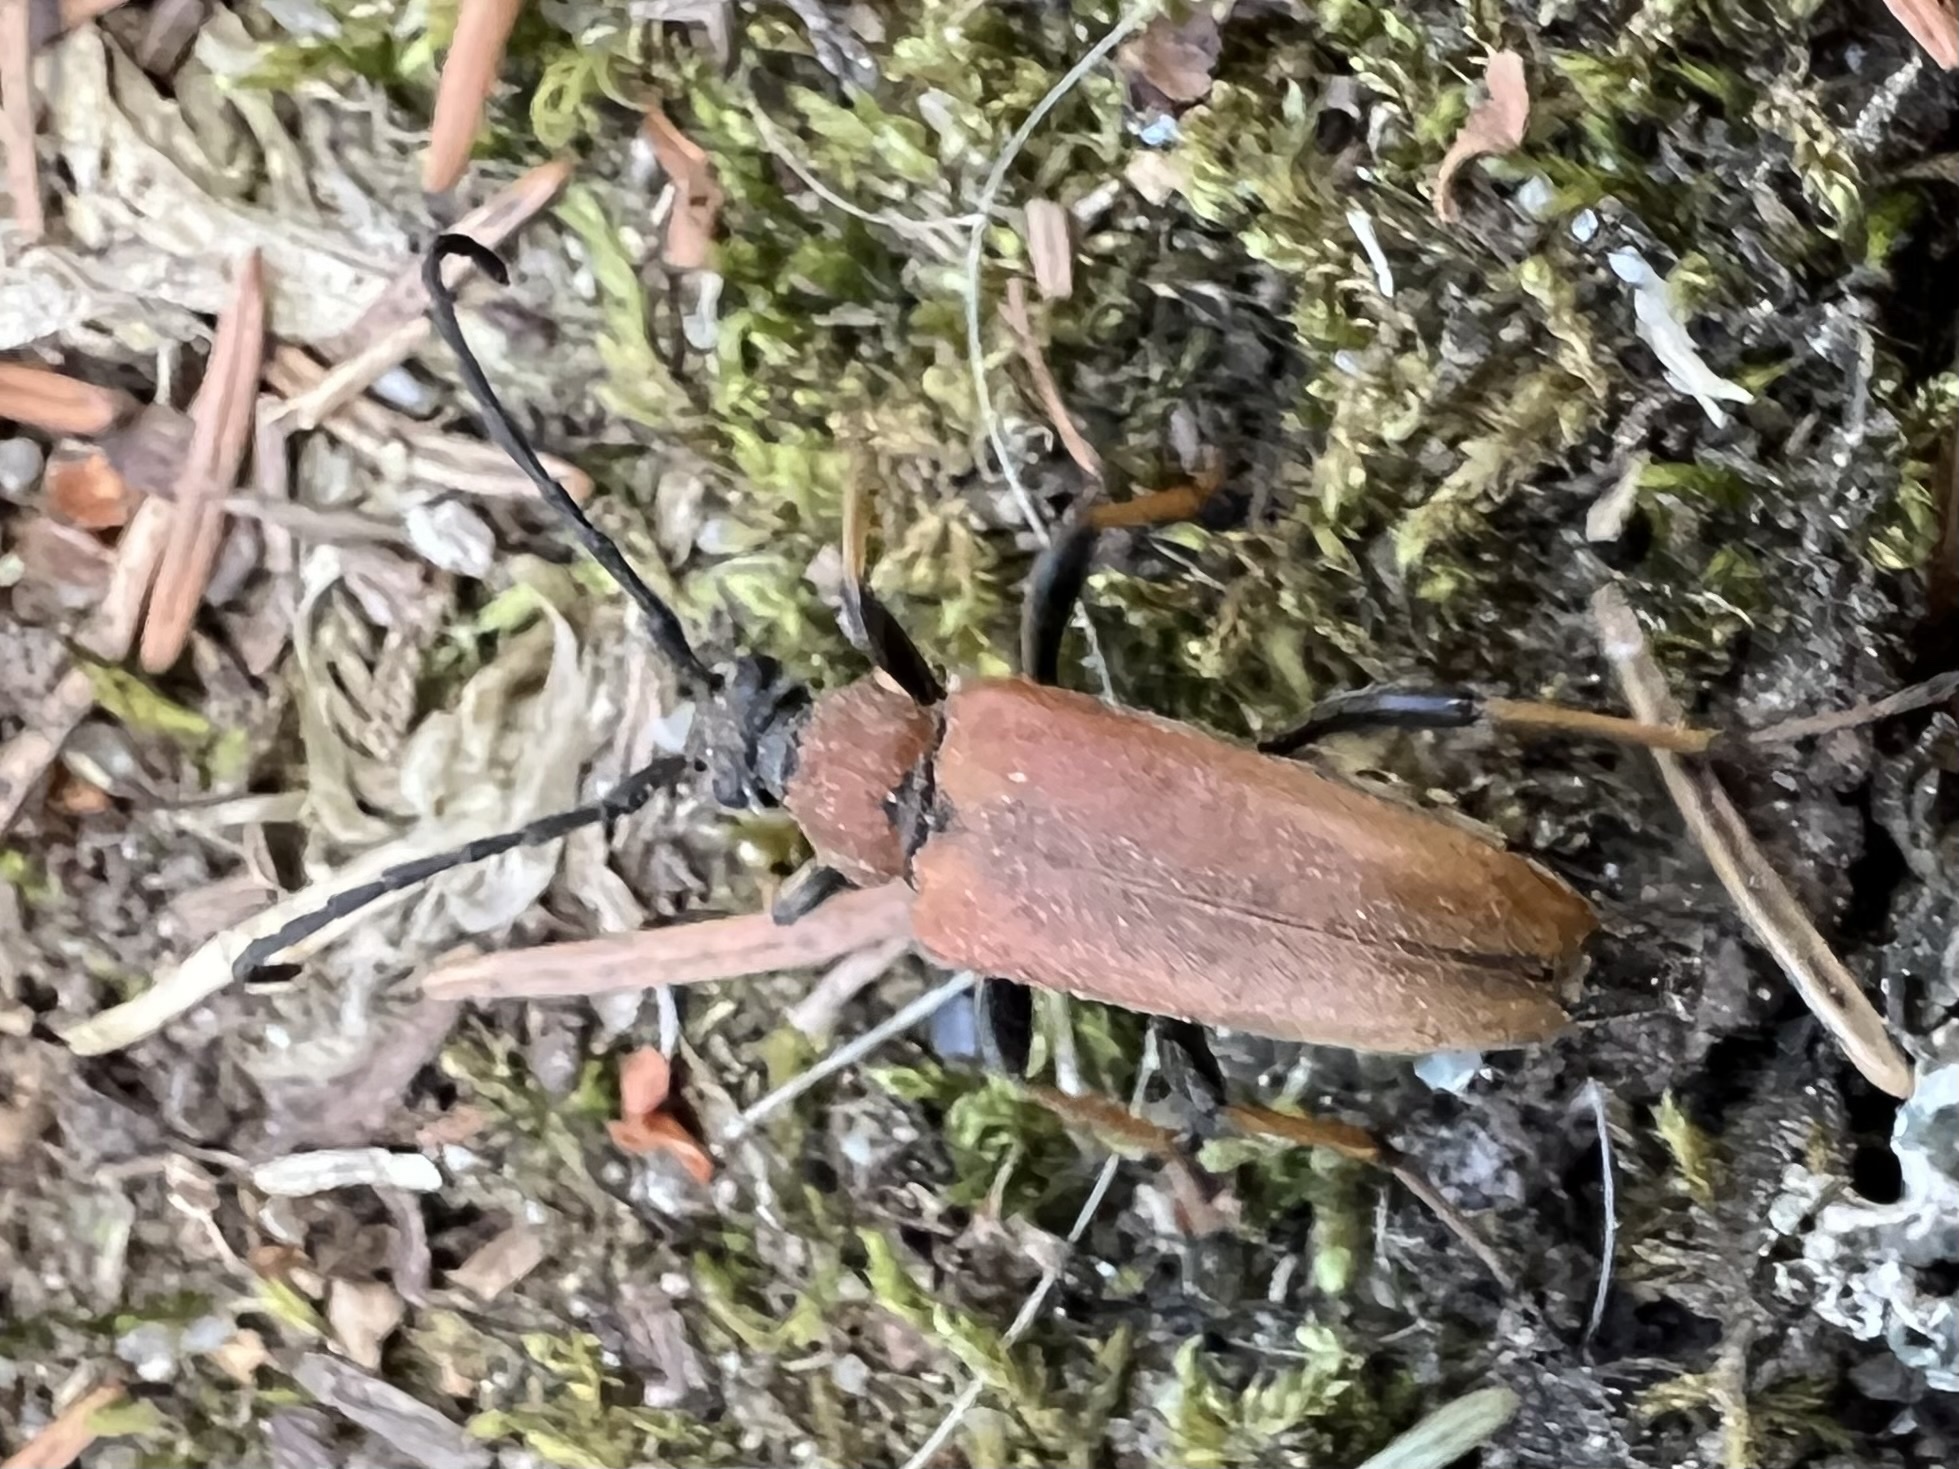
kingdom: Animalia
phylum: Arthropoda
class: Insecta
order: Coleoptera
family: Cerambycidae
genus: Stictoleptura
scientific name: Stictoleptura rubra
